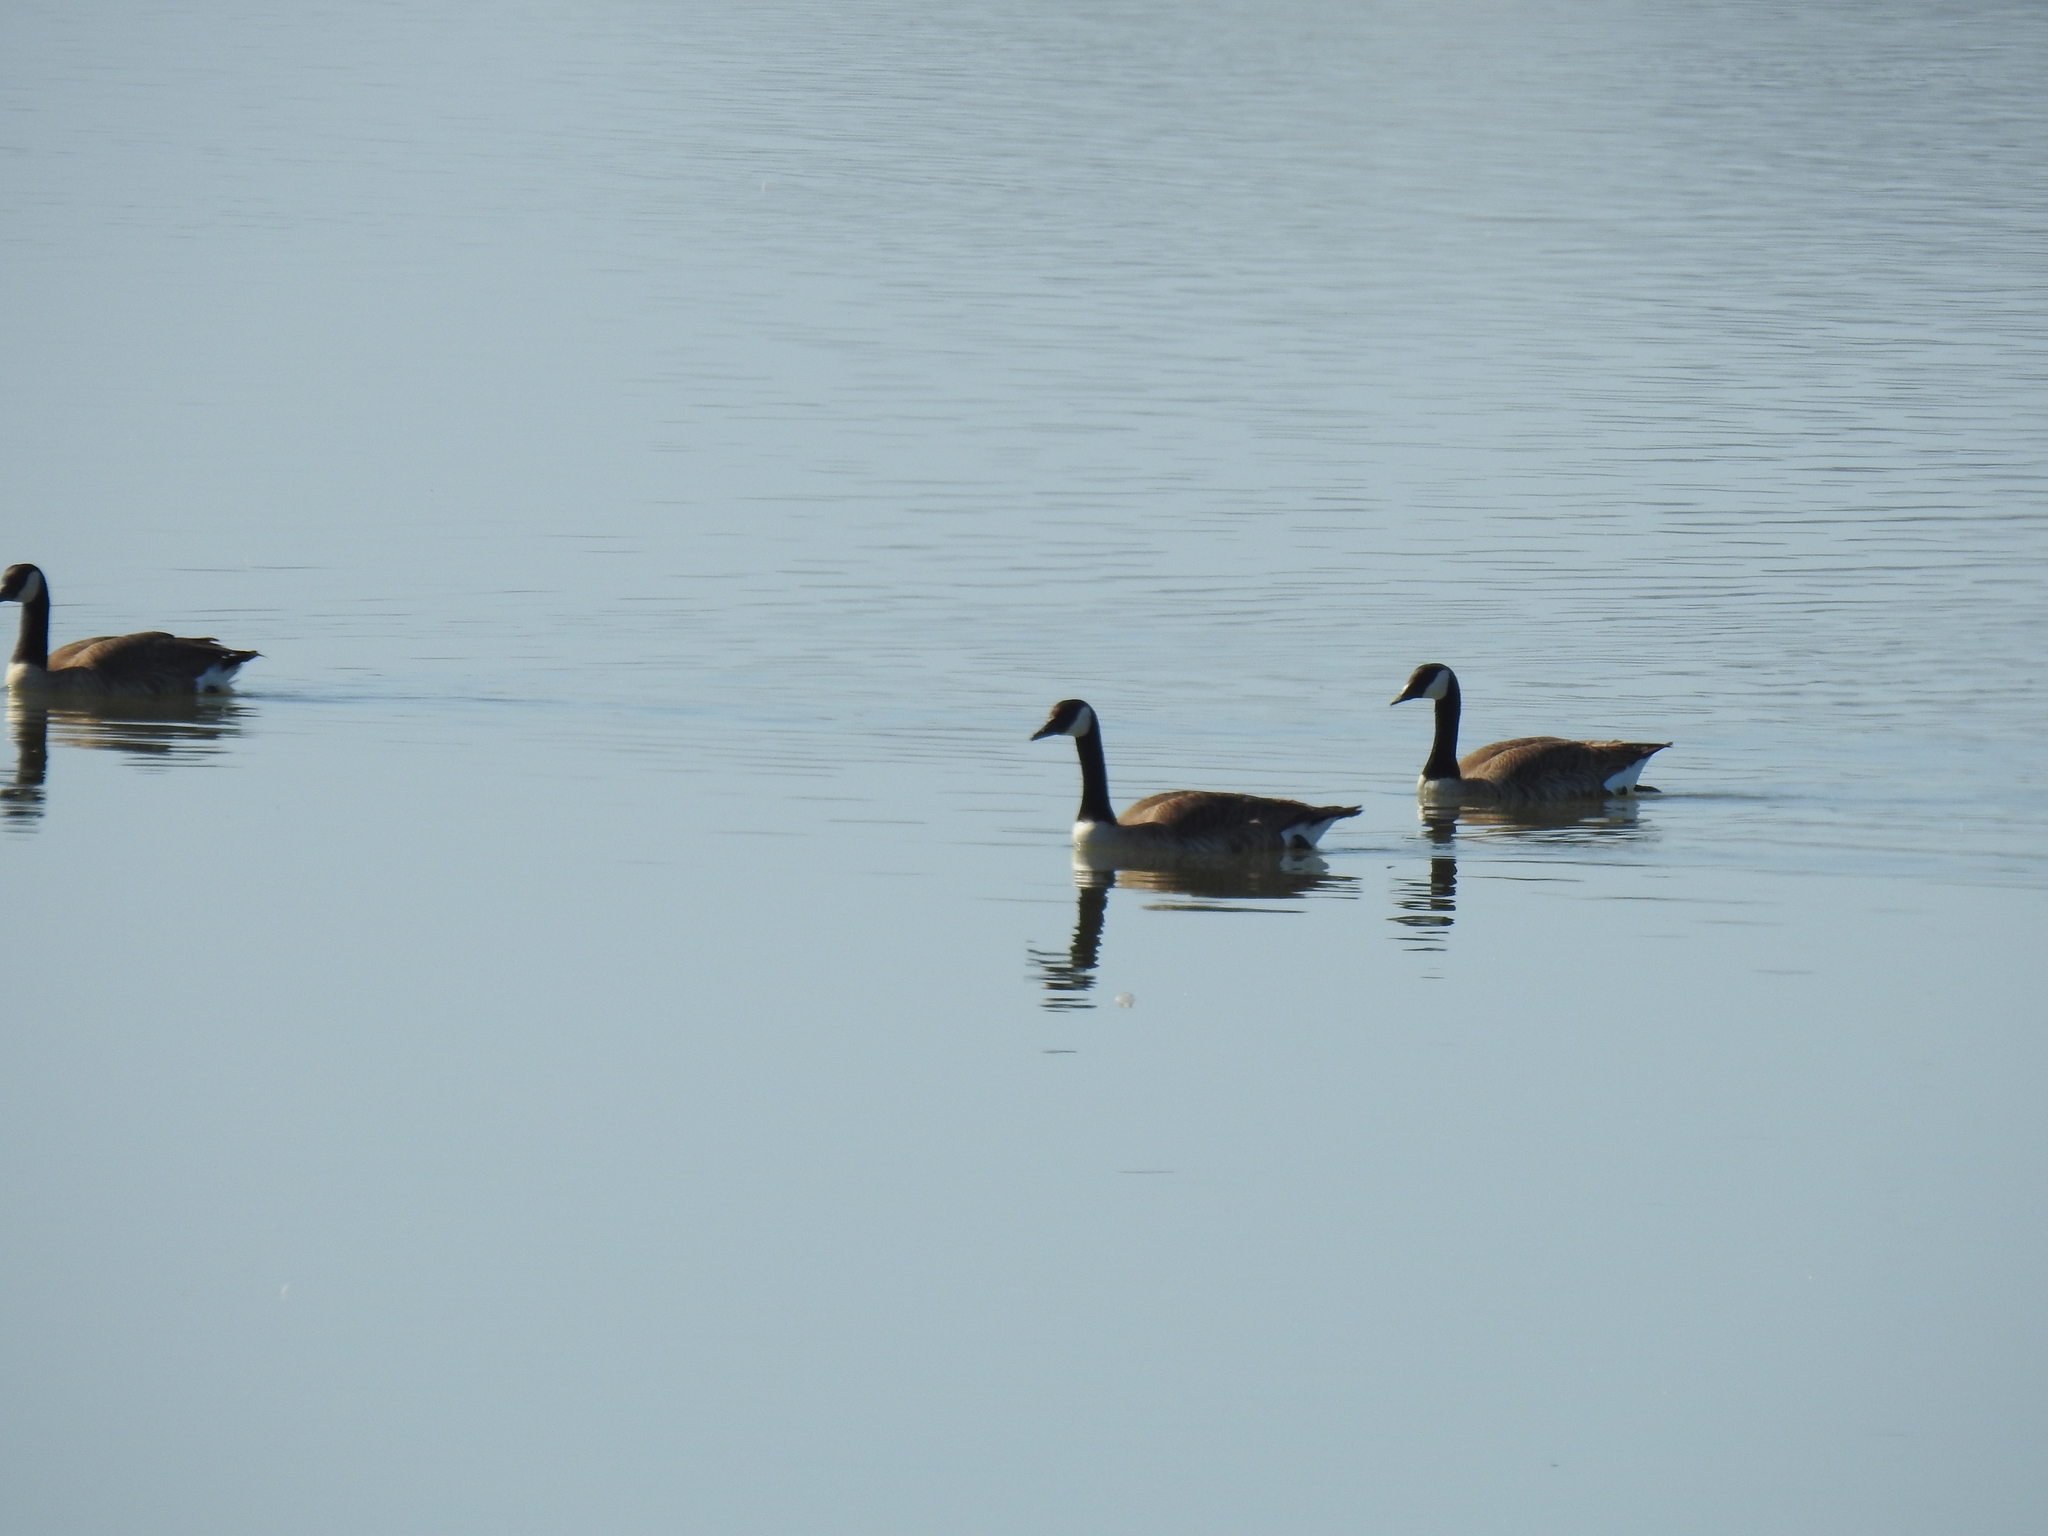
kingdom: Animalia
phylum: Chordata
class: Aves
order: Anseriformes
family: Anatidae
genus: Branta
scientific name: Branta canadensis
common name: Canada goose
